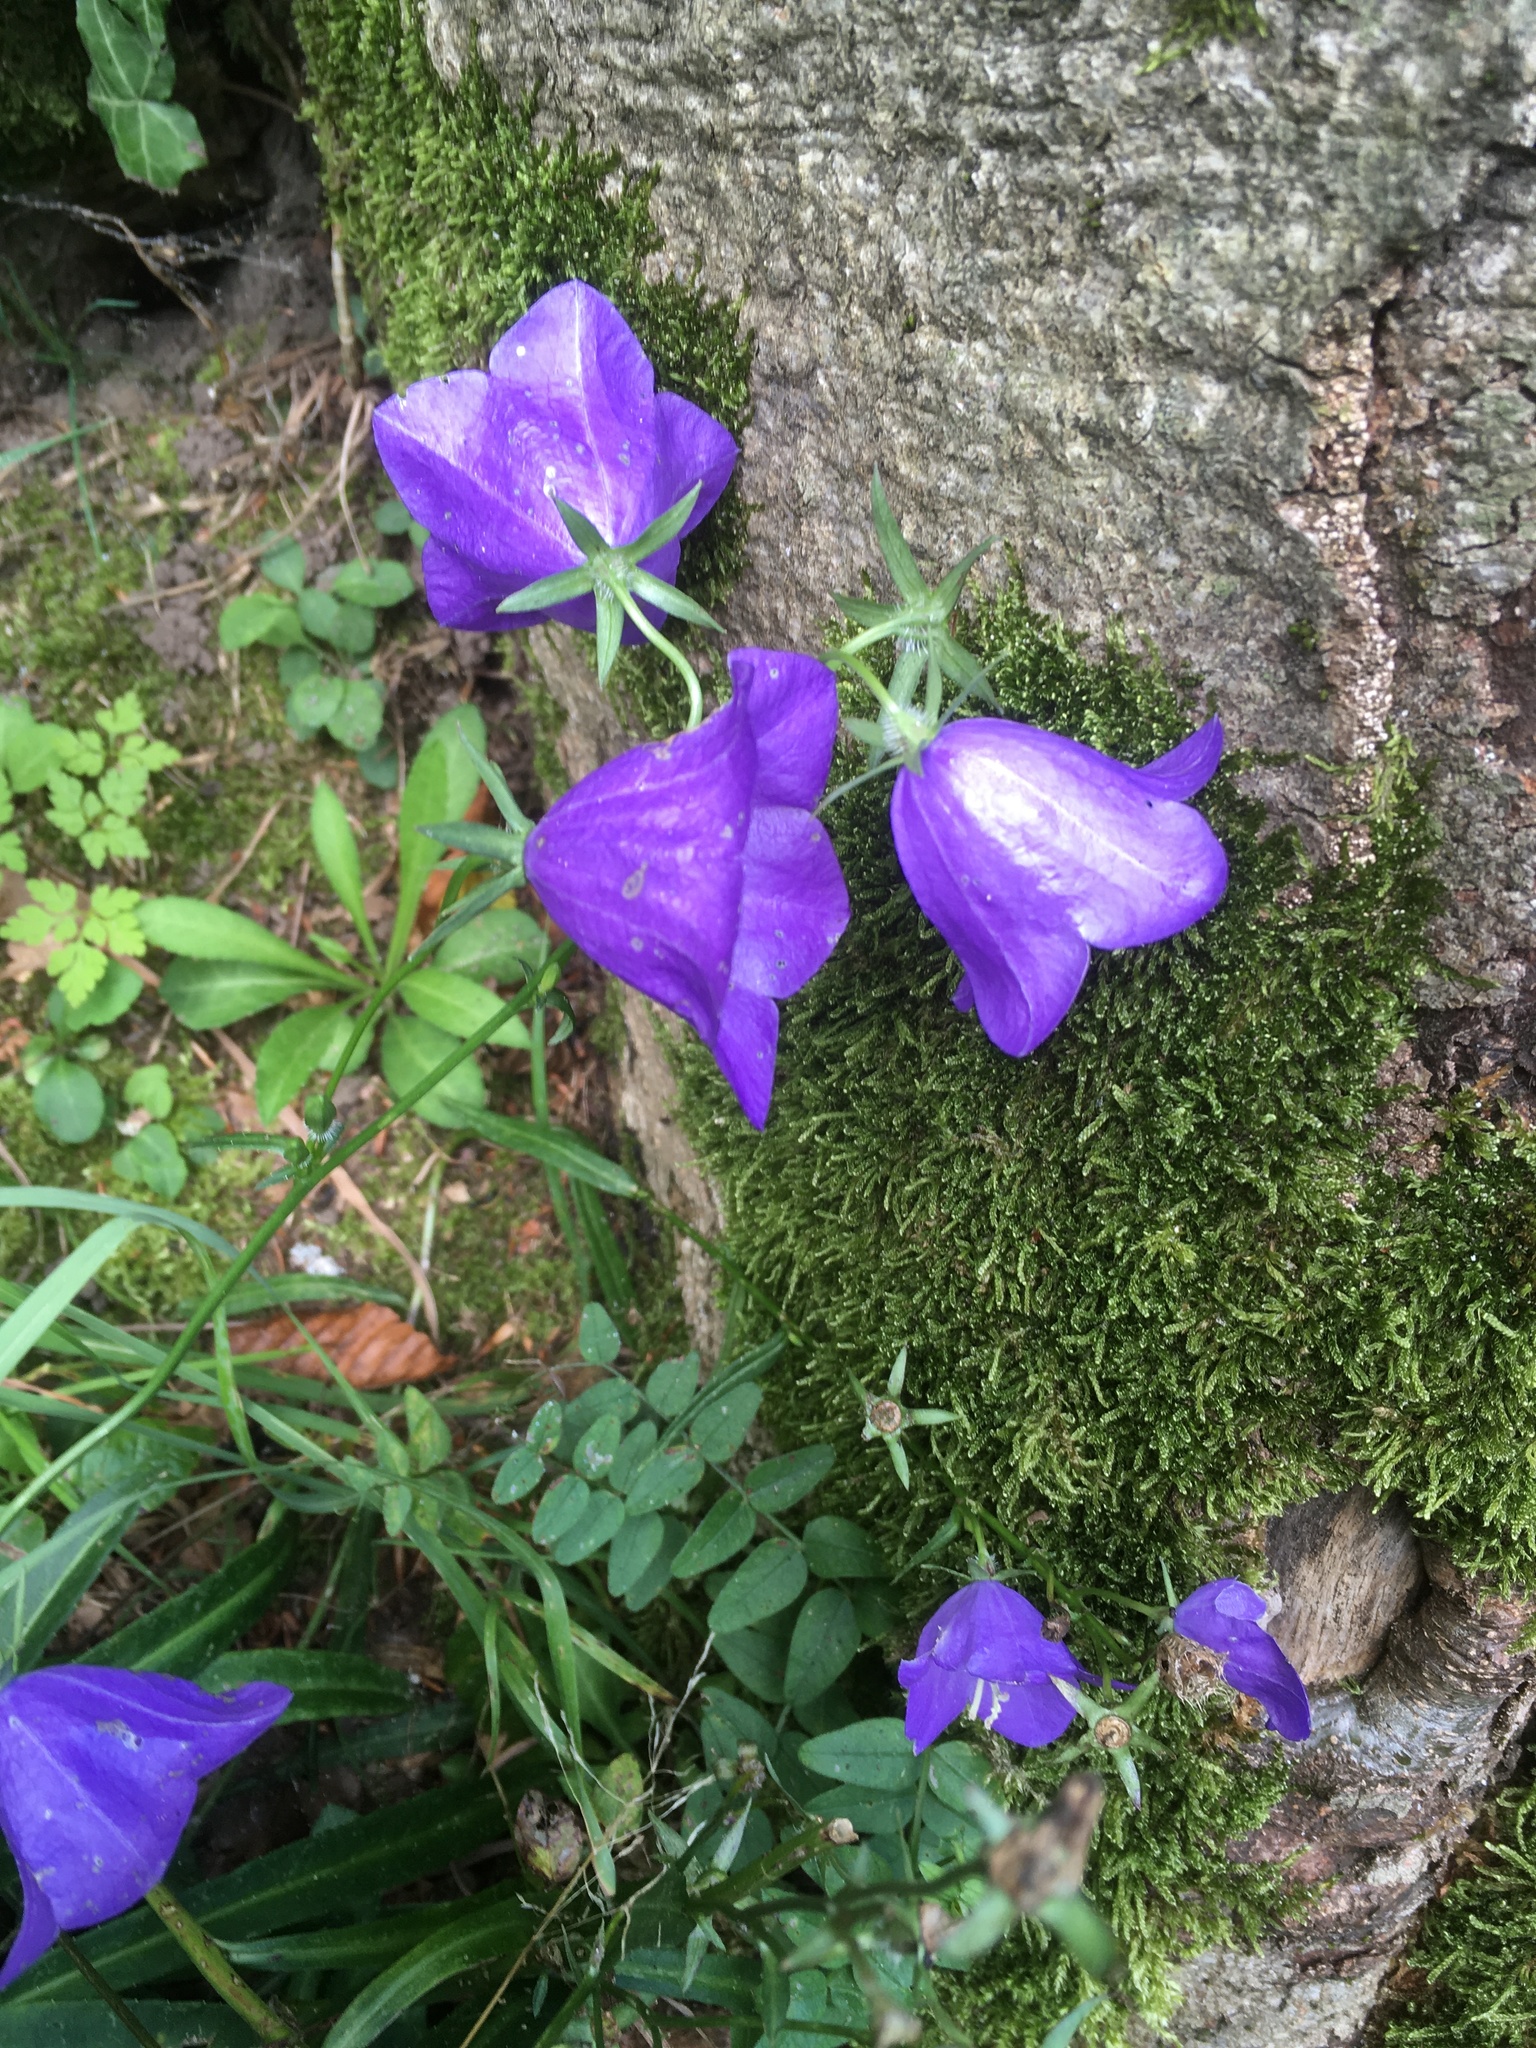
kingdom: Plantae
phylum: Tracheophyta
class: Magnoliopsida
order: Asterales
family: Campanulaceae
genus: Campanula
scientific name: Campanula persicifolia
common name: Peach-leaved bellflower
